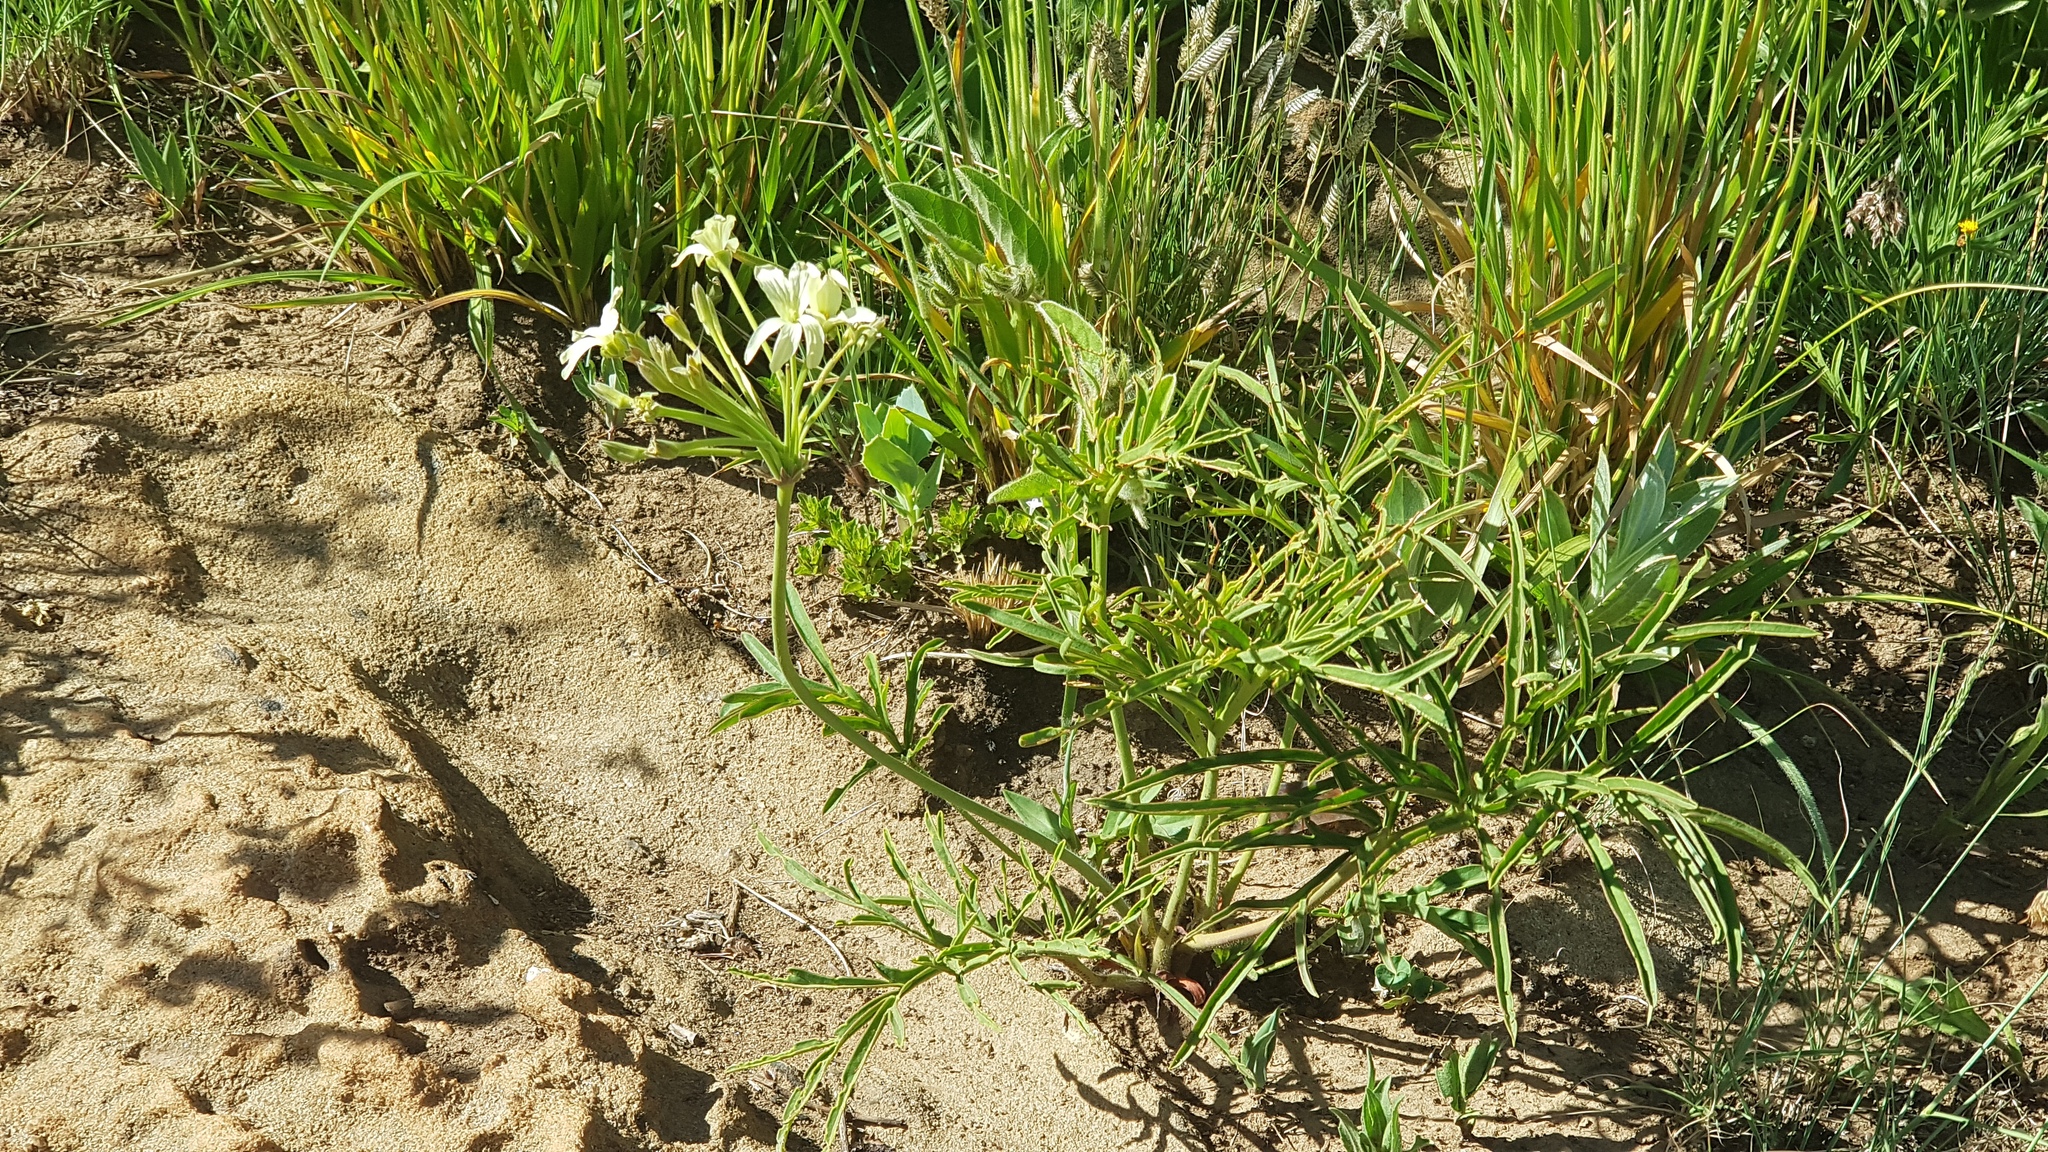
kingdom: Plantae
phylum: Tracheophyta
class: Magnoliopsida
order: Geraniales
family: Geraniaceae
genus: Pelargonium
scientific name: Pelargonium luridum
